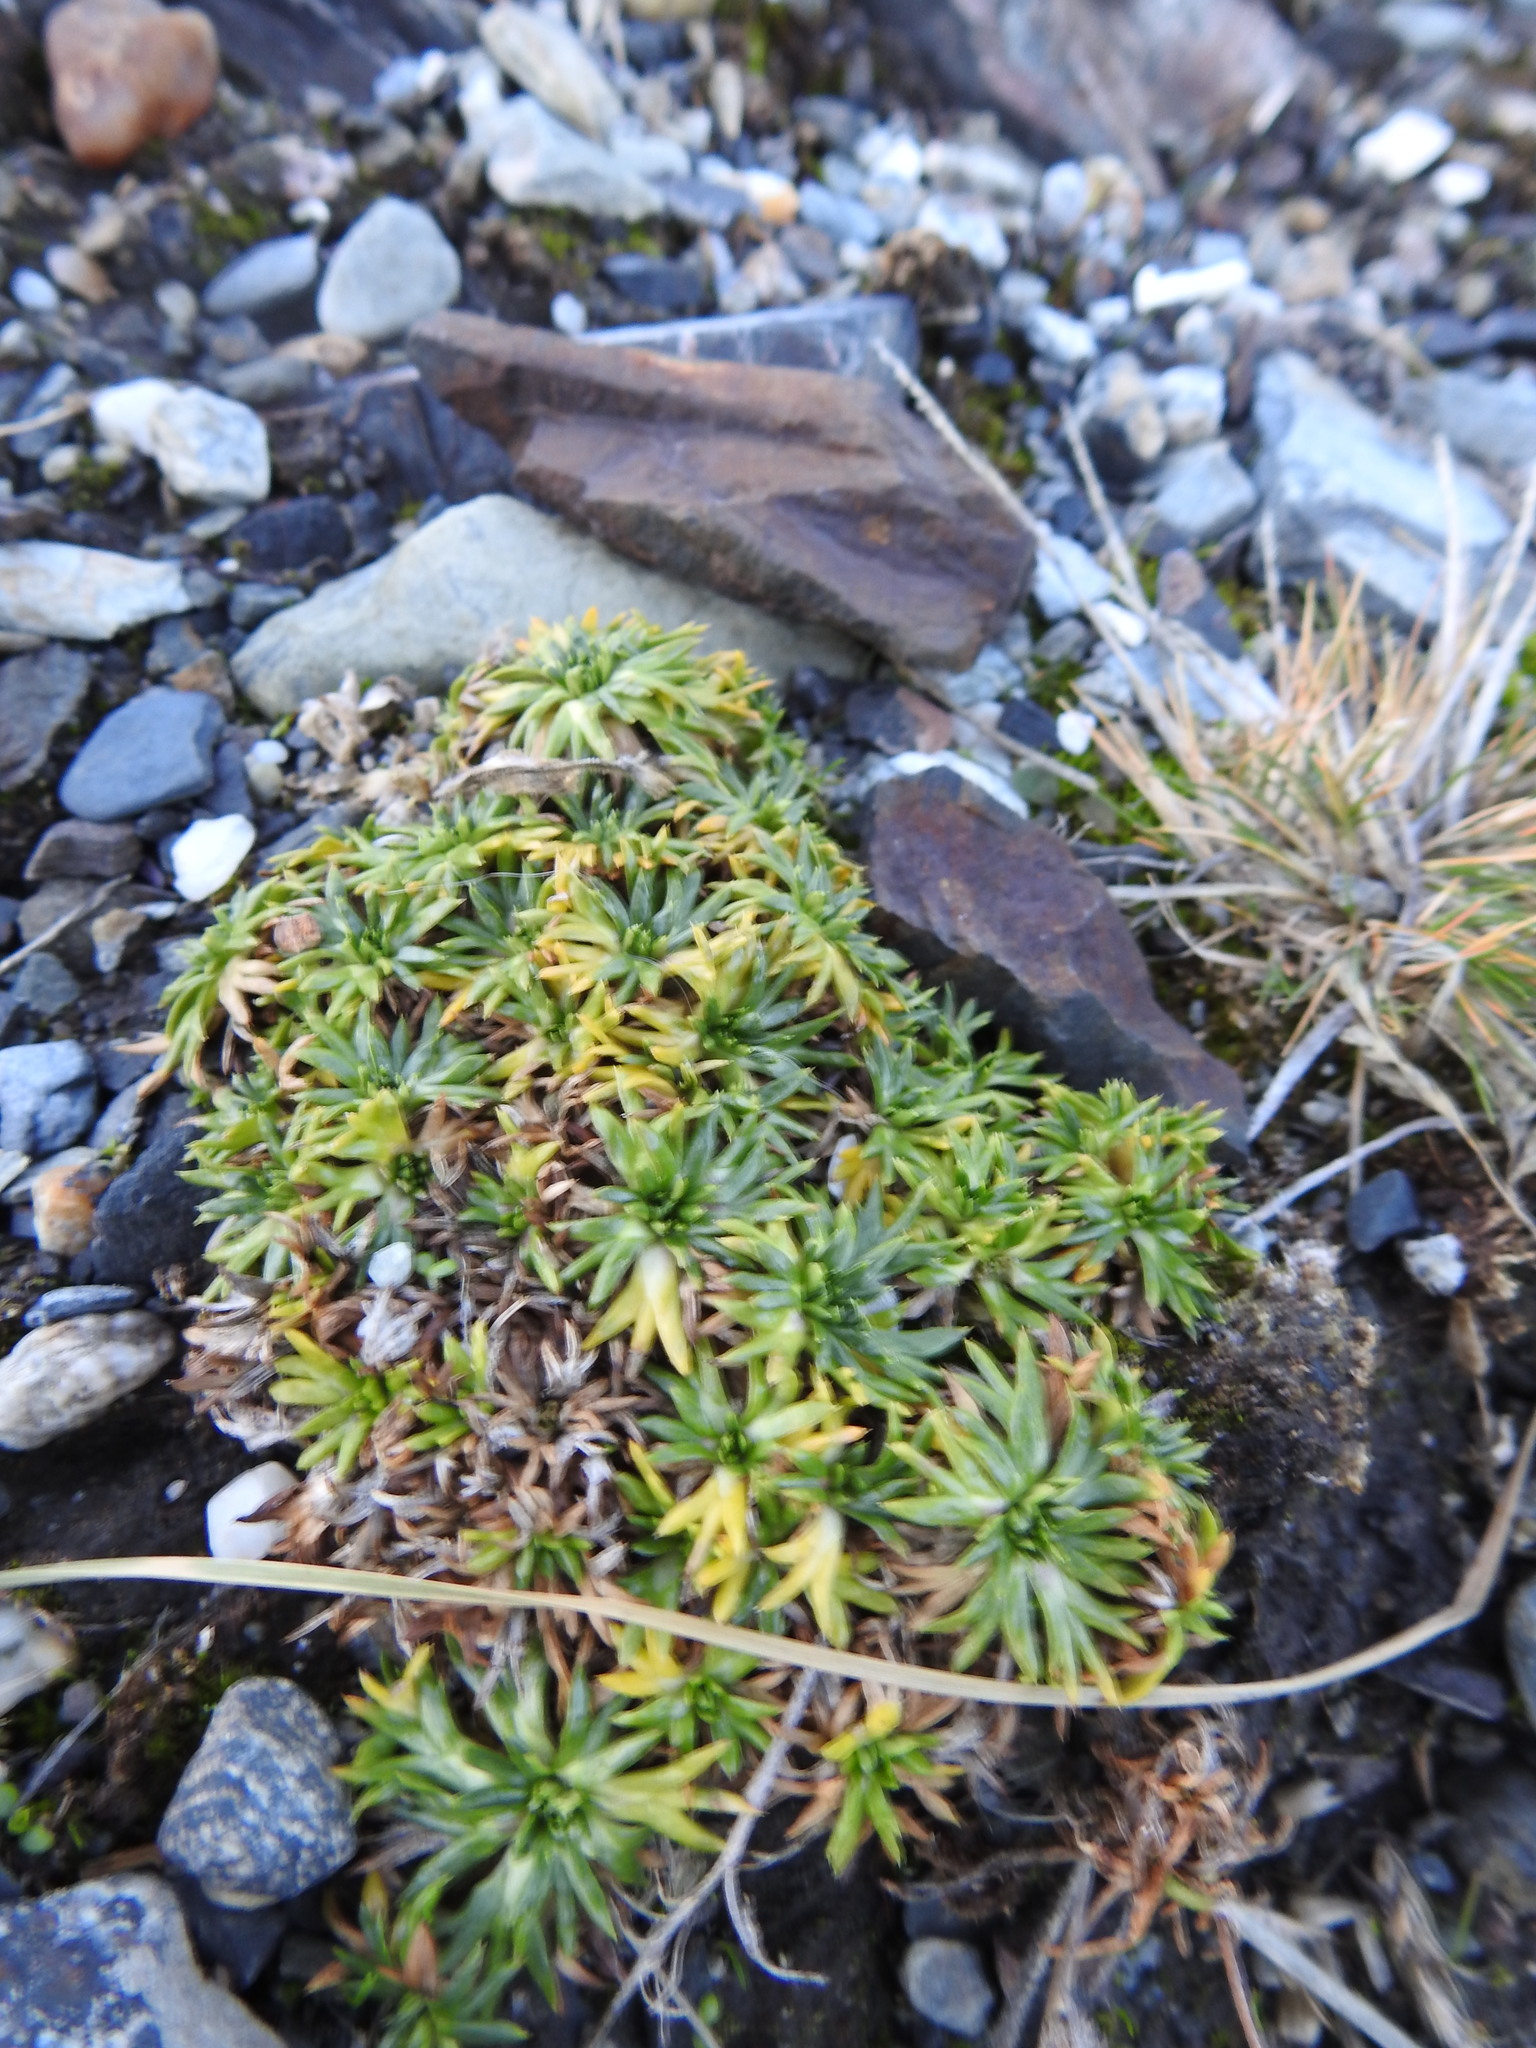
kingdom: Plantae
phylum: Tracheophyta
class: Magnoliopsida
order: Apiales
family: Apiaceae
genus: Azorella
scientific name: Azorella trifurcata
